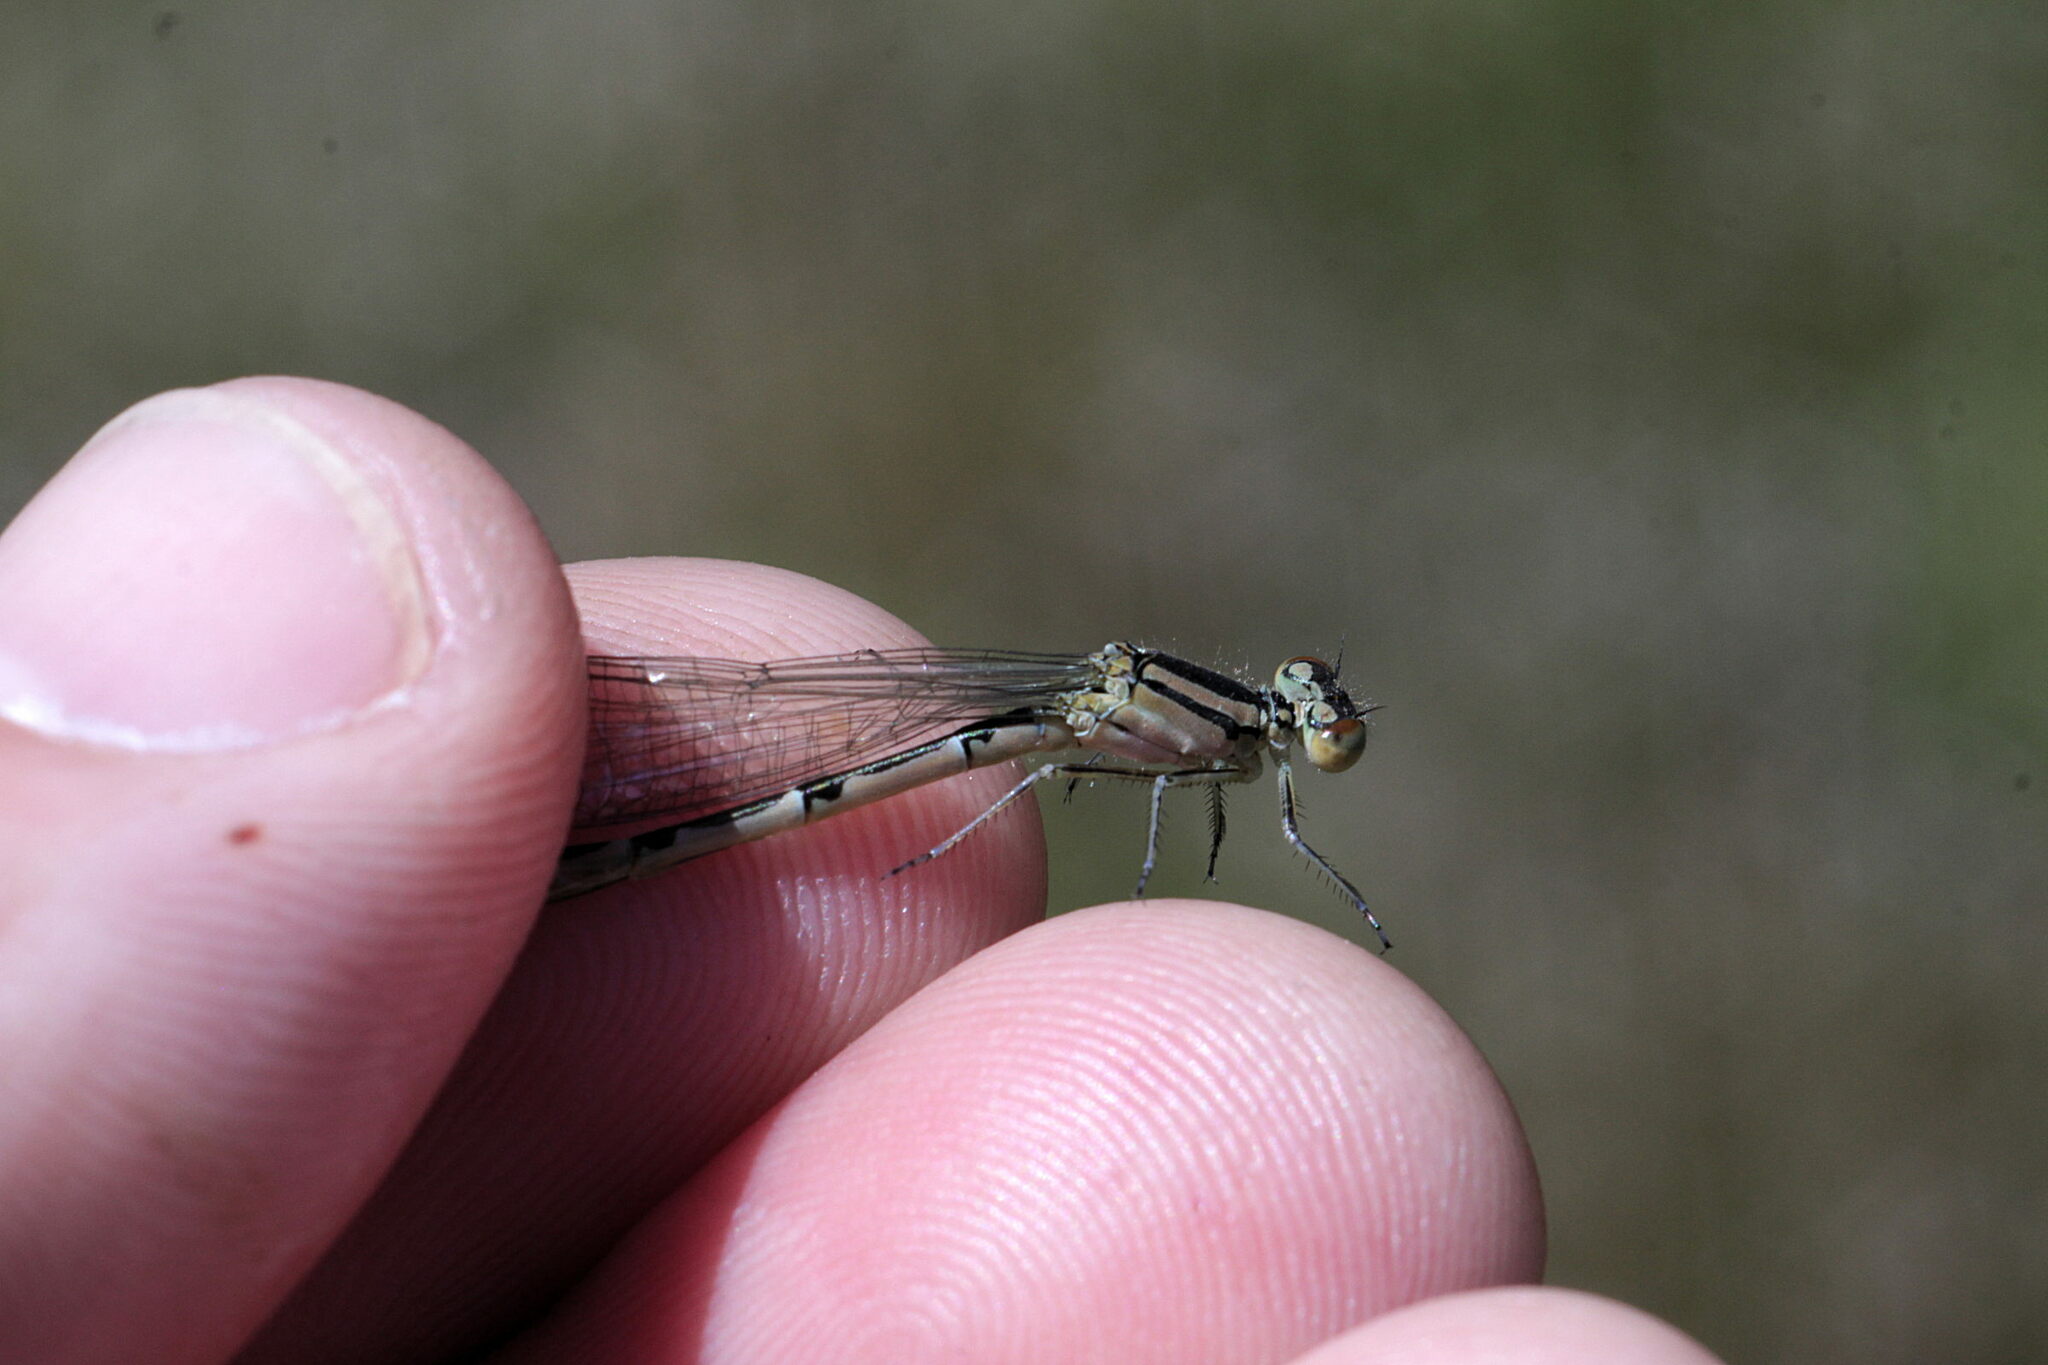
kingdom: Animalia
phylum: Arthropoda
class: Insecta
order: Odonata
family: Coenagrionidae
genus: Enallagma
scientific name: Enallagma cyathigerum
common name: Common blue damselfly
